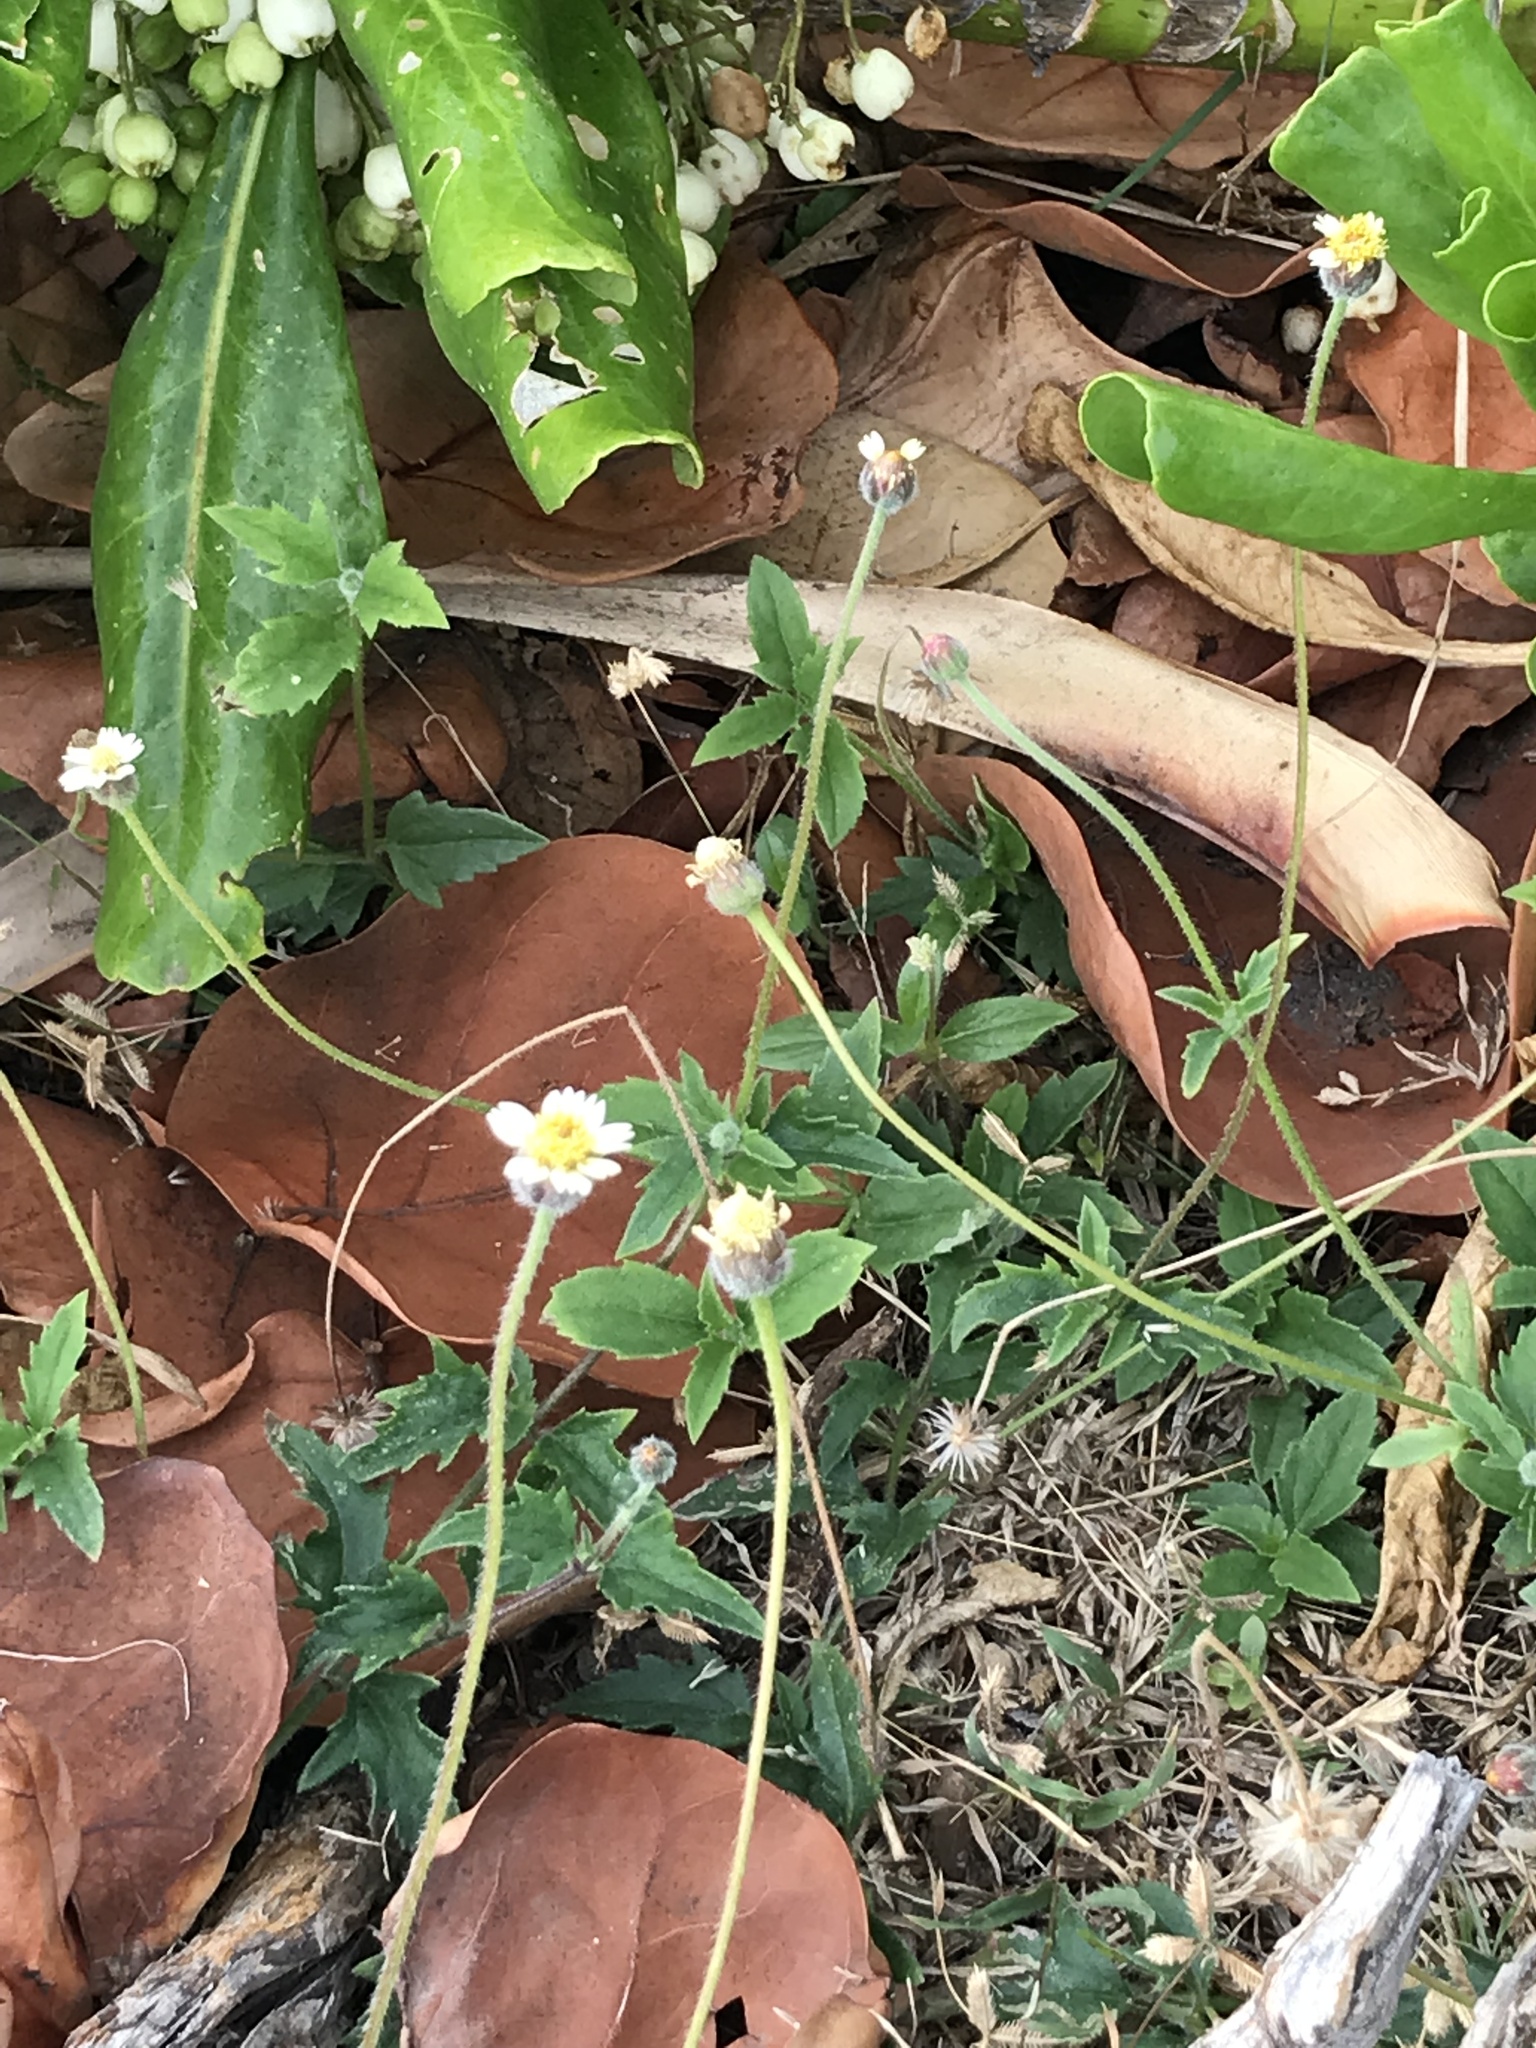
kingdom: Plantae
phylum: Tracheophyta
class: Magnoliopsida
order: Asterales
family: Asteraceae
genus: Tridax
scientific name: Tridax procumbens
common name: Coatbuttons
